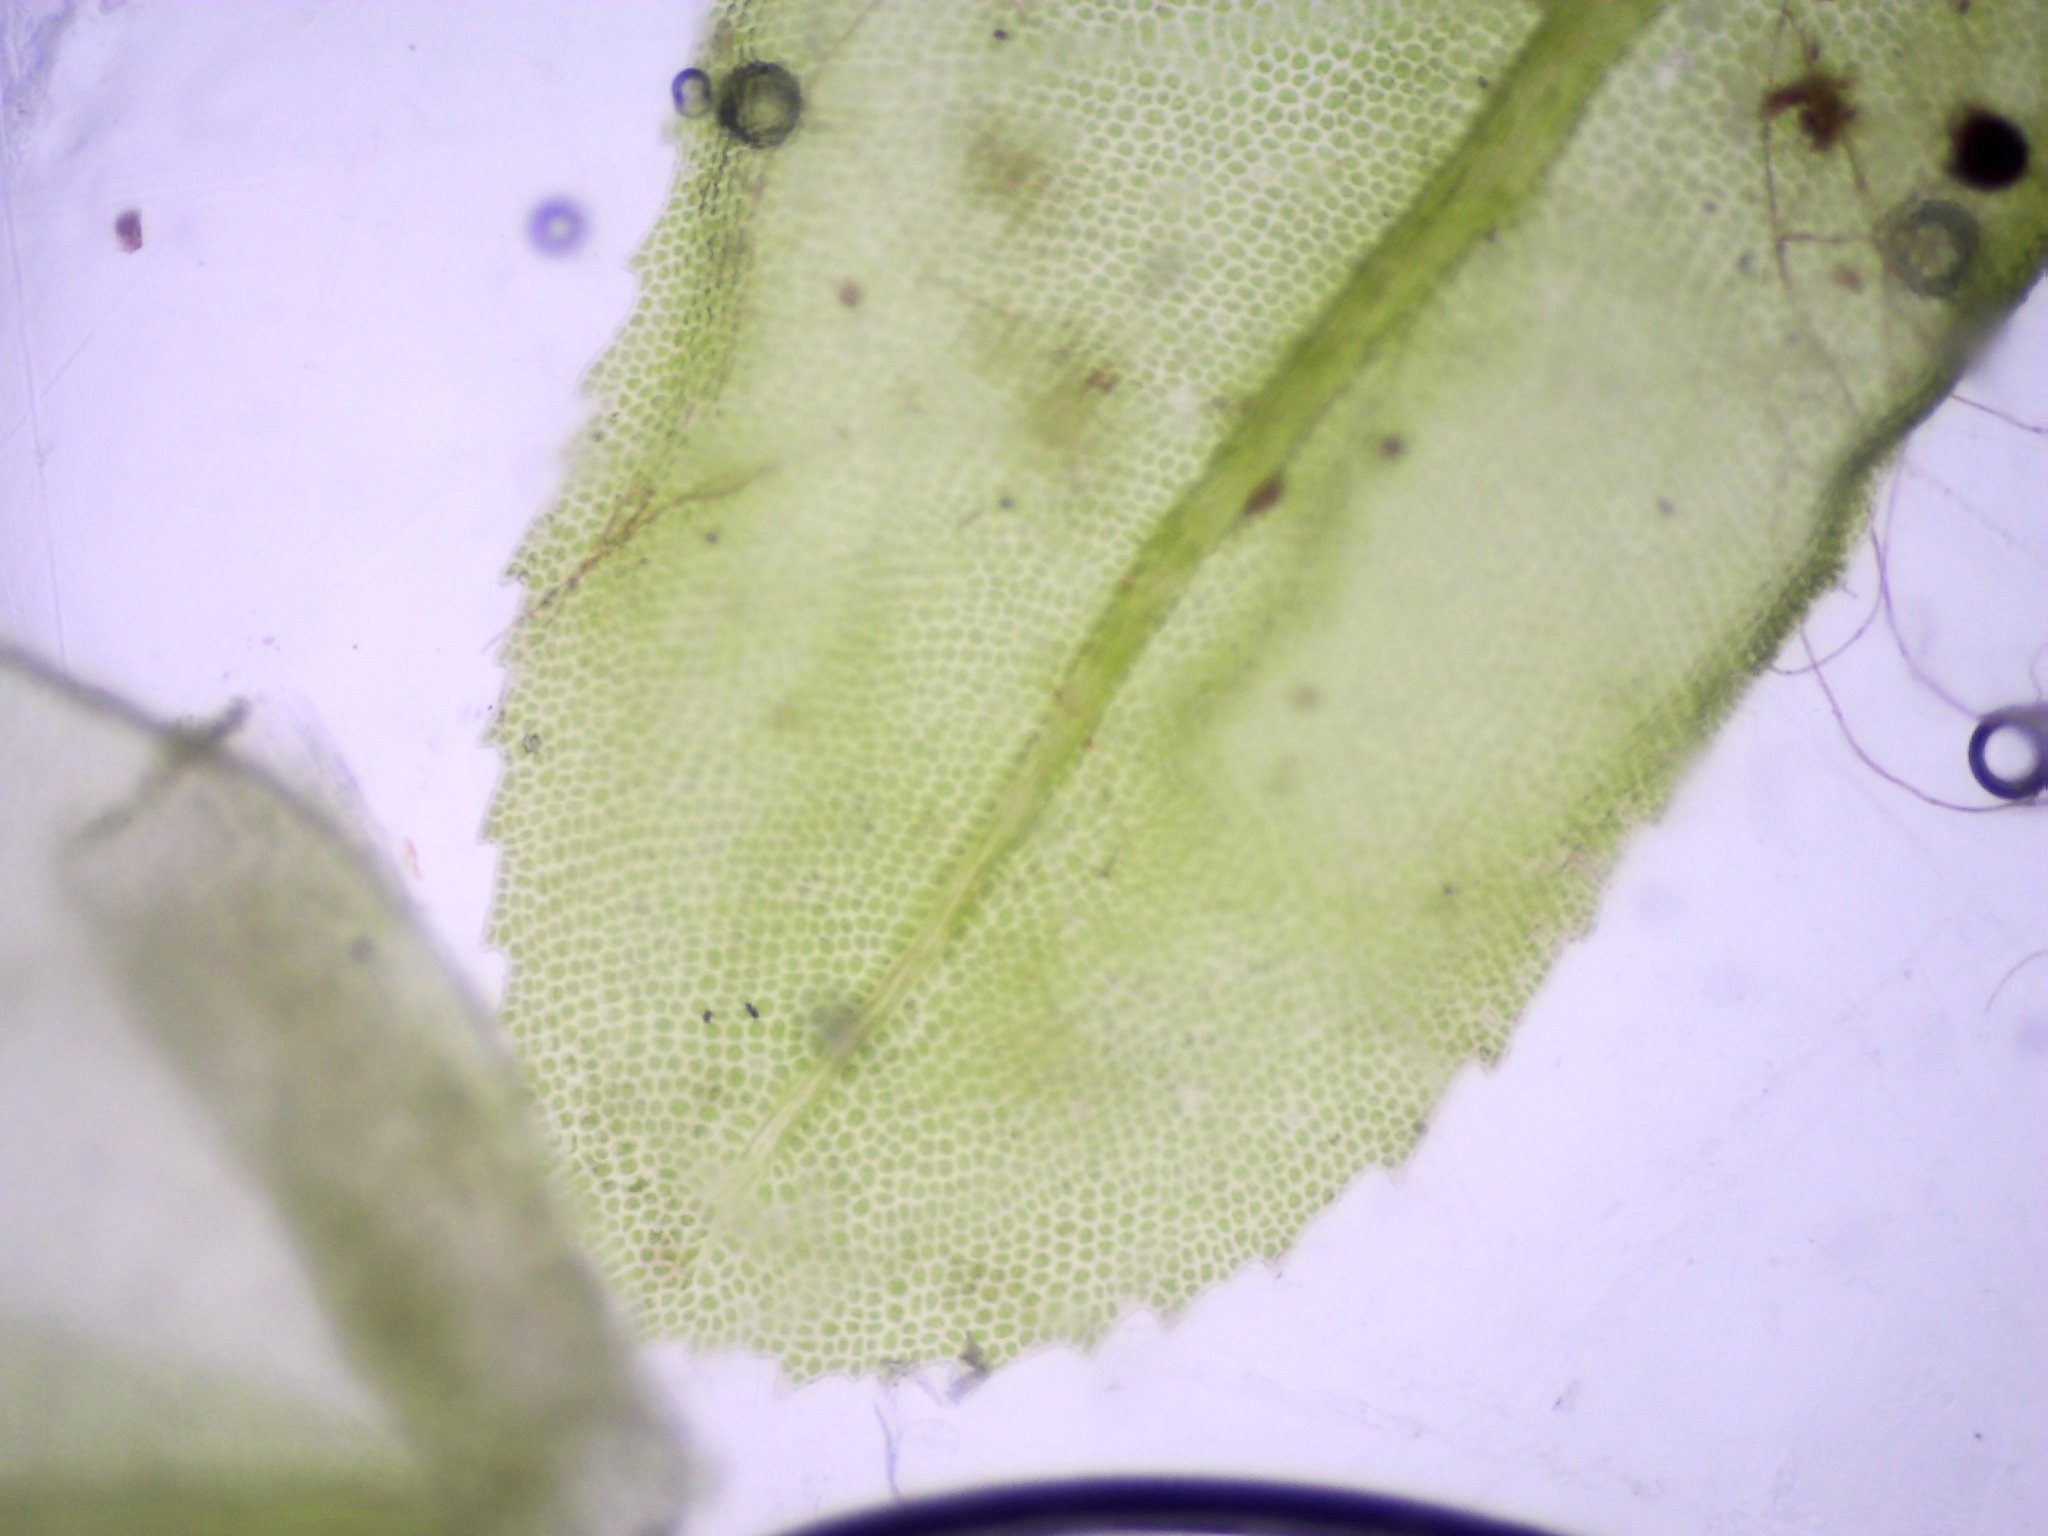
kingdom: Plantae
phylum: Bryophyta
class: Bryopsida
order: Aulacomniales
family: Aulacomniaceae
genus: Aulacomnium
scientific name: Aulacomnium heterostichum
